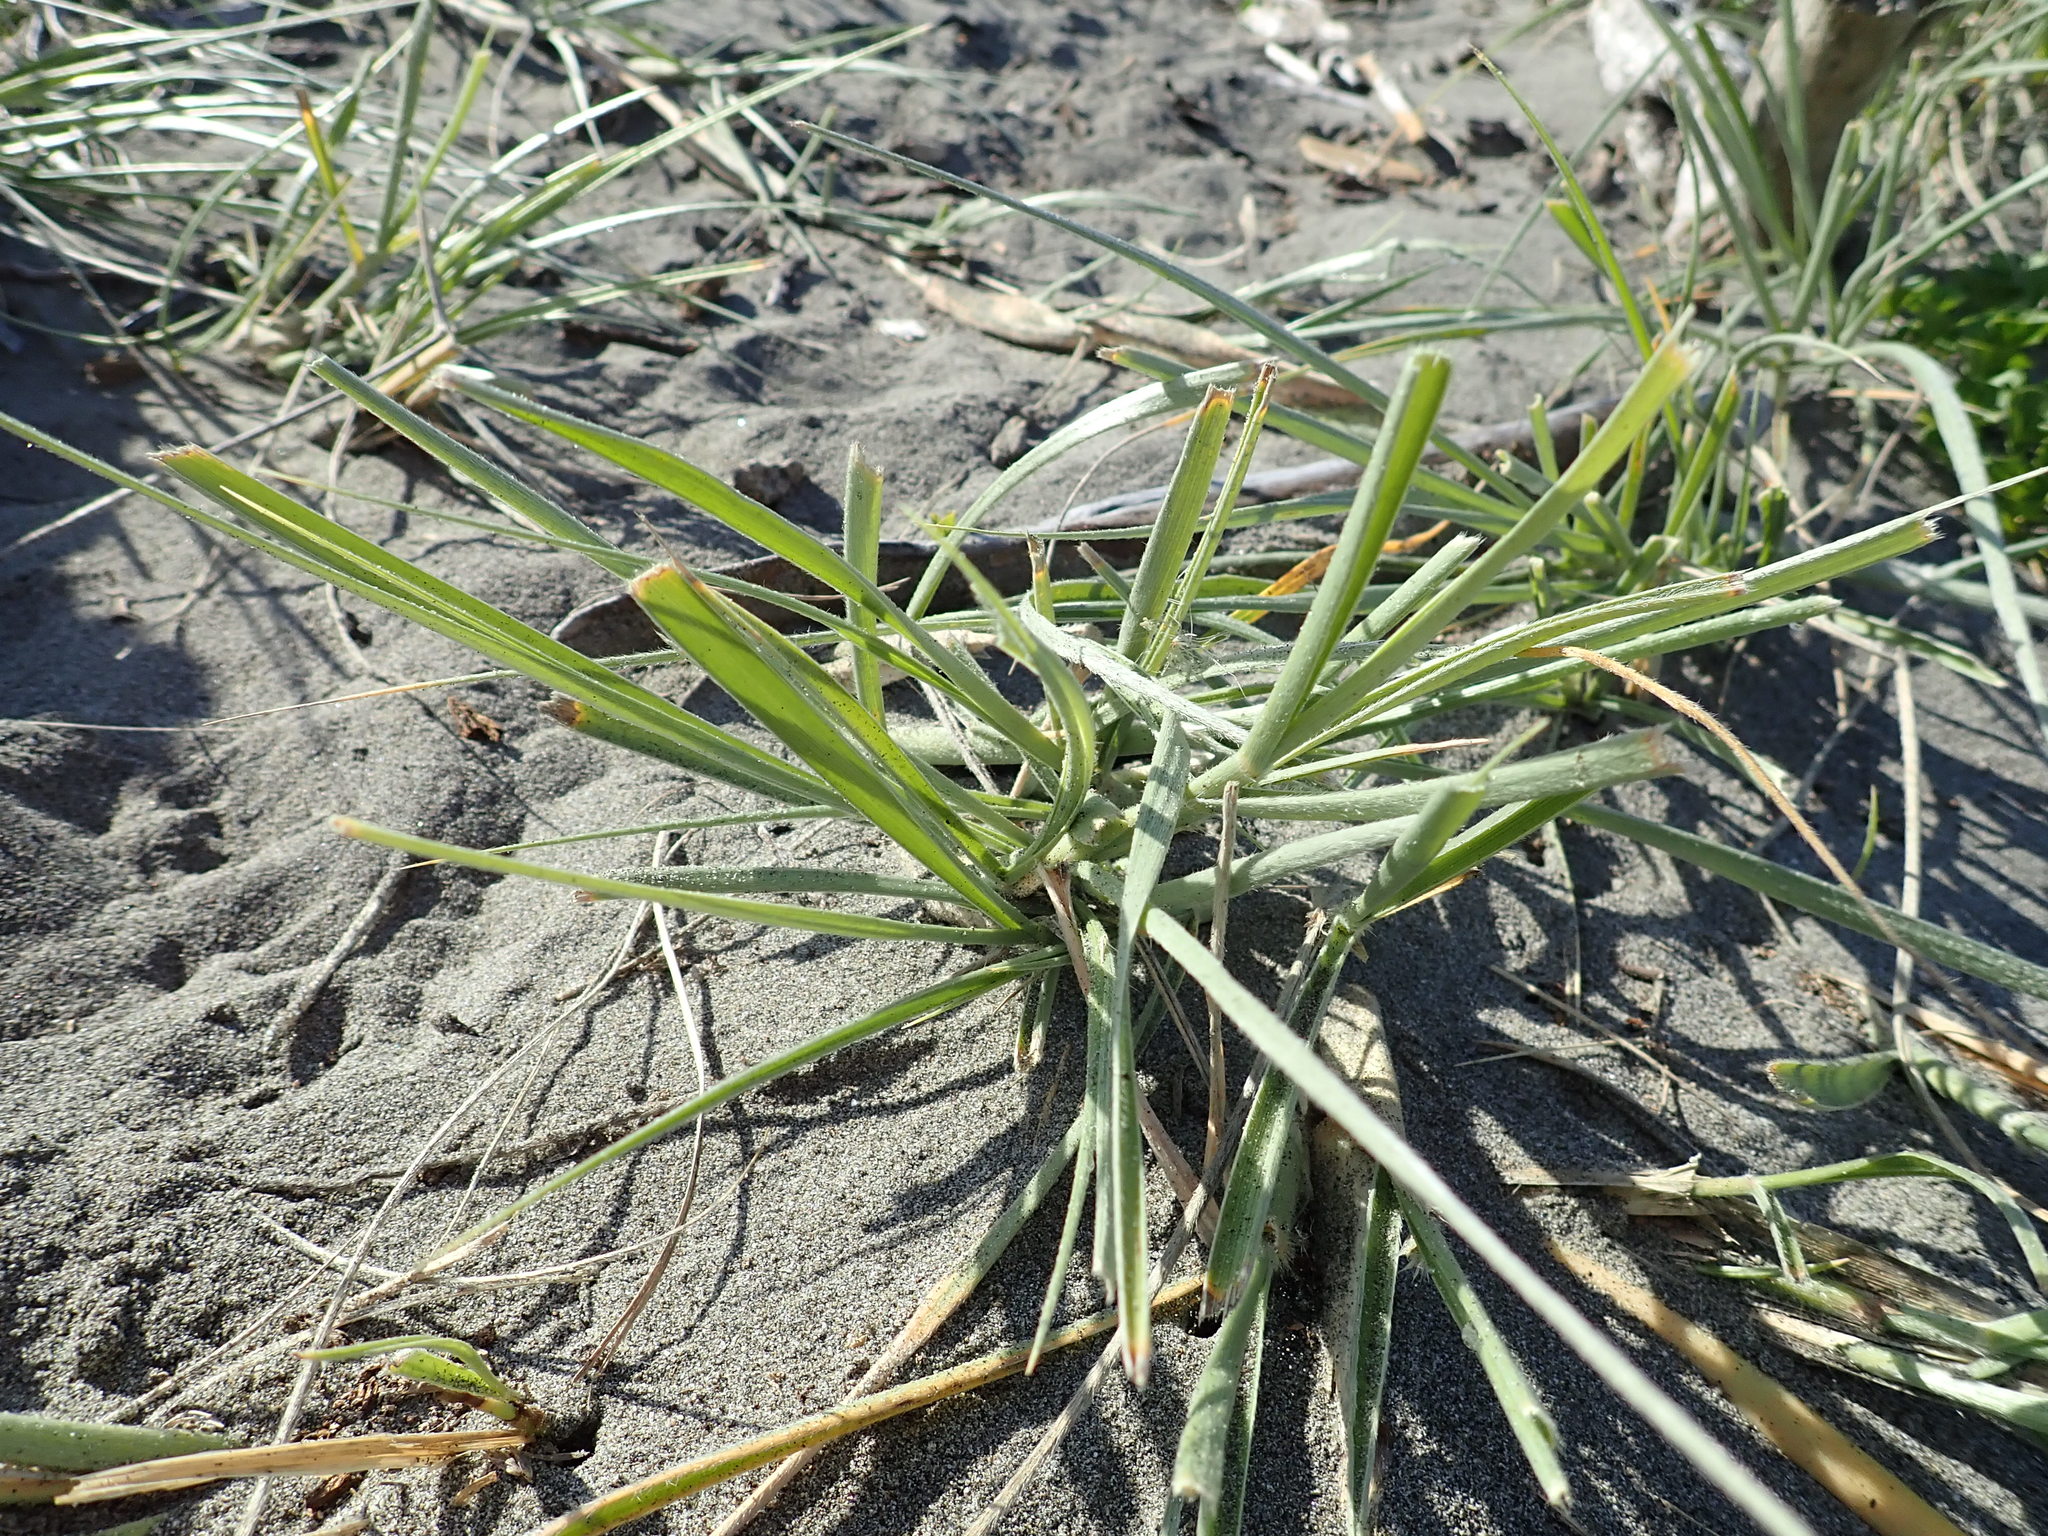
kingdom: Plantae
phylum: Tracheophyta
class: Liliopsida
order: Poales
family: Poaceae
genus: Spinifex
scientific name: Spinifex sericeus
